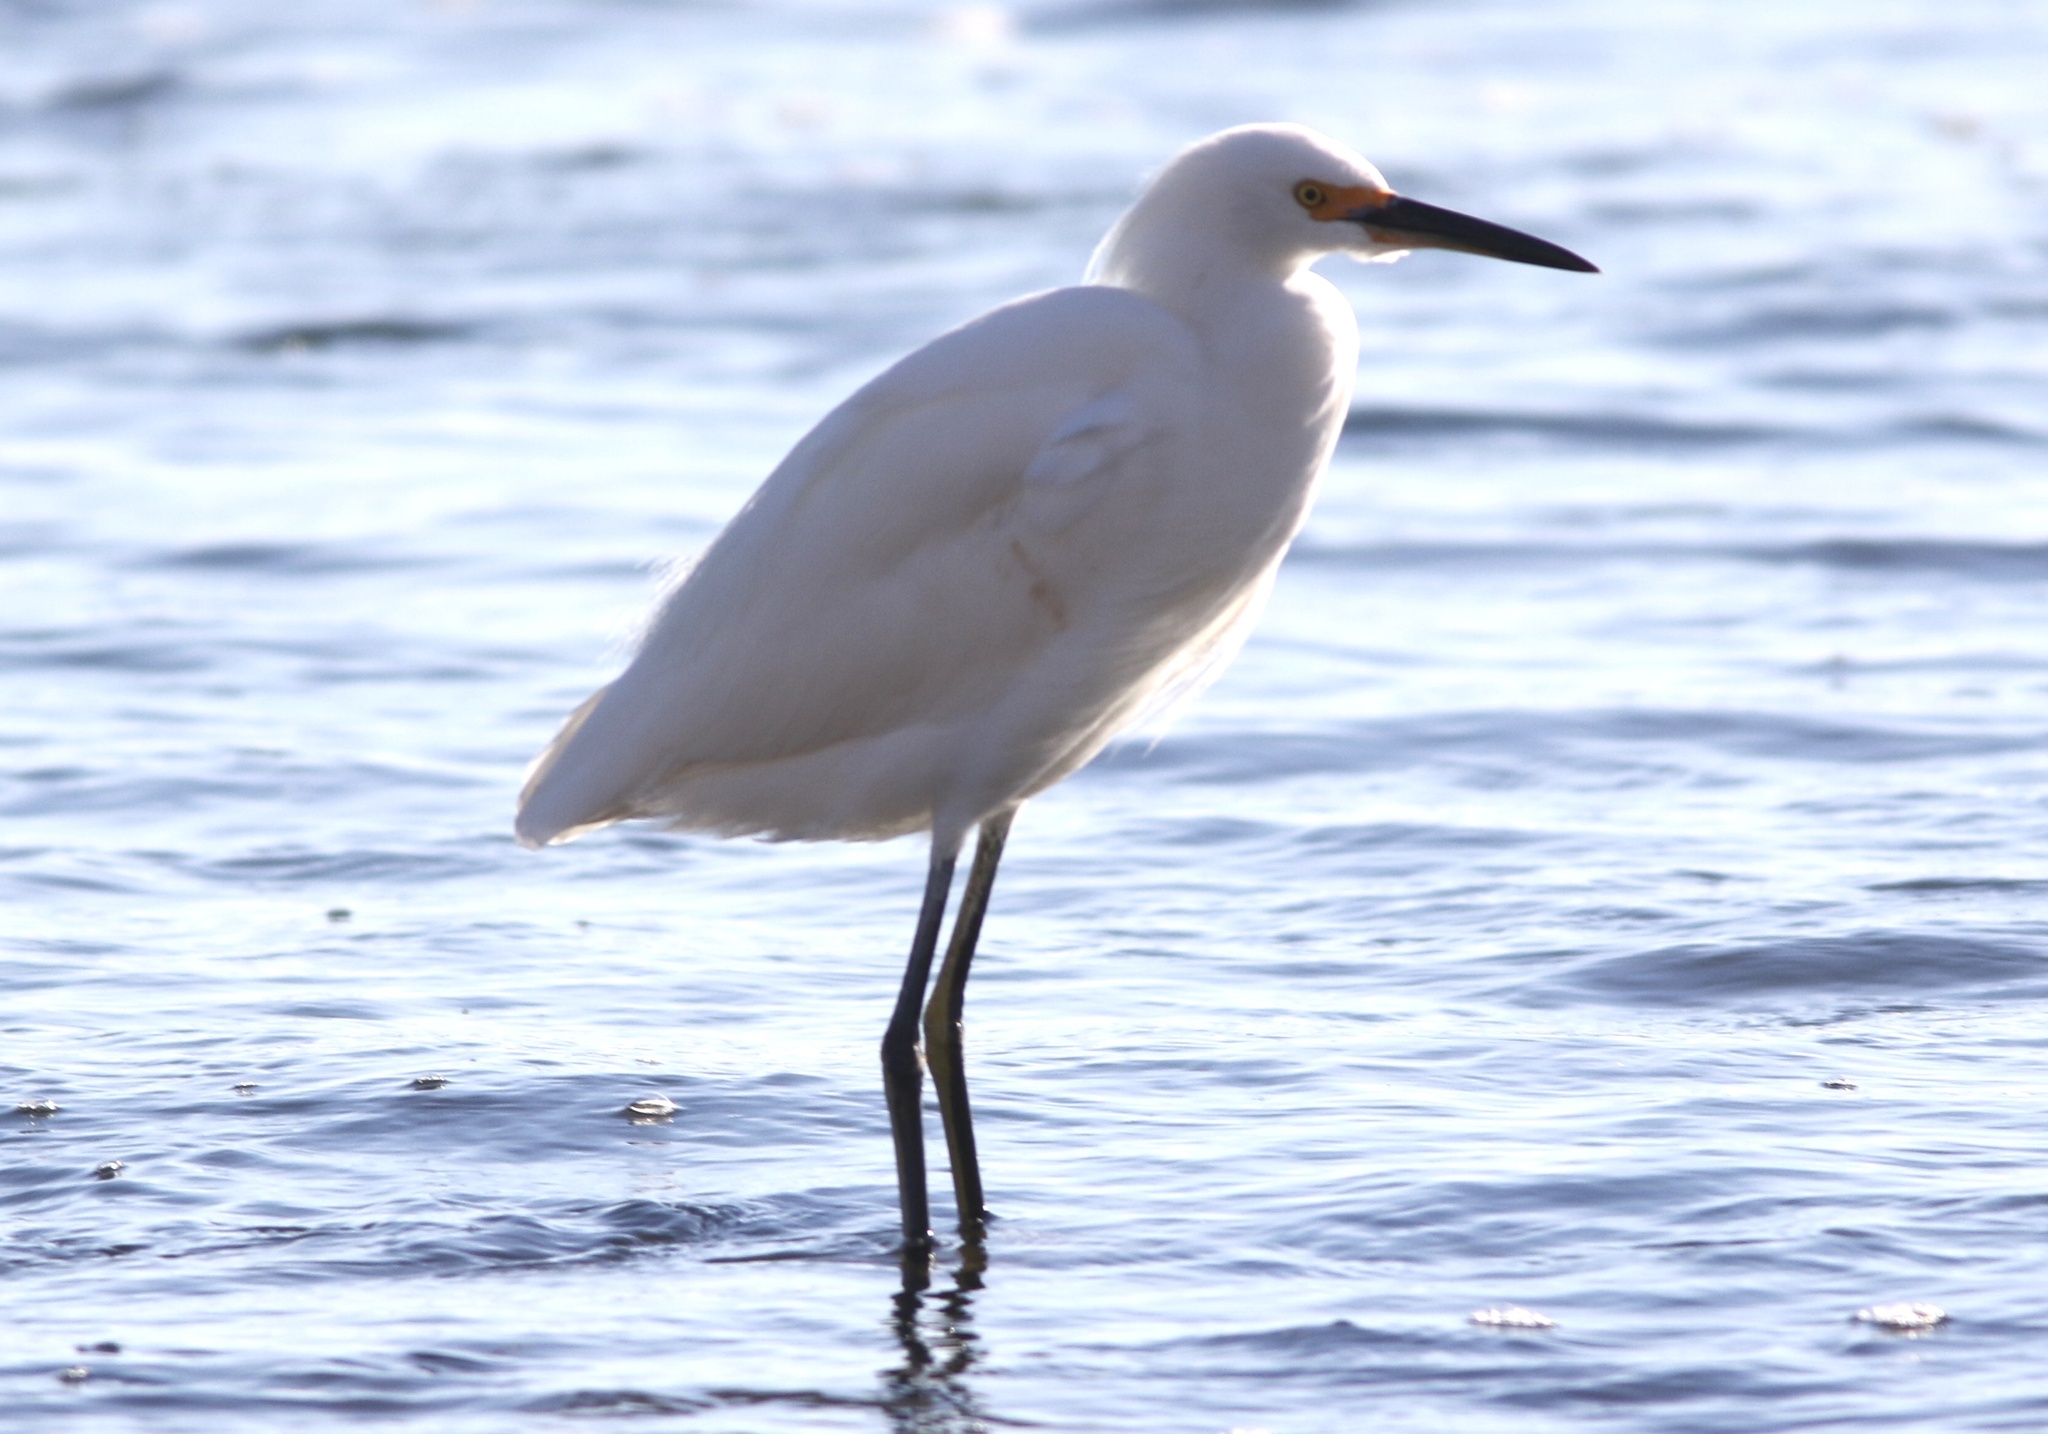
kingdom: Animalia
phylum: Chordata
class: Aves
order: Pelecaniformes
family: Ardeidae
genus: Egretta
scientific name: Egretta thula
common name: Snowy egret
